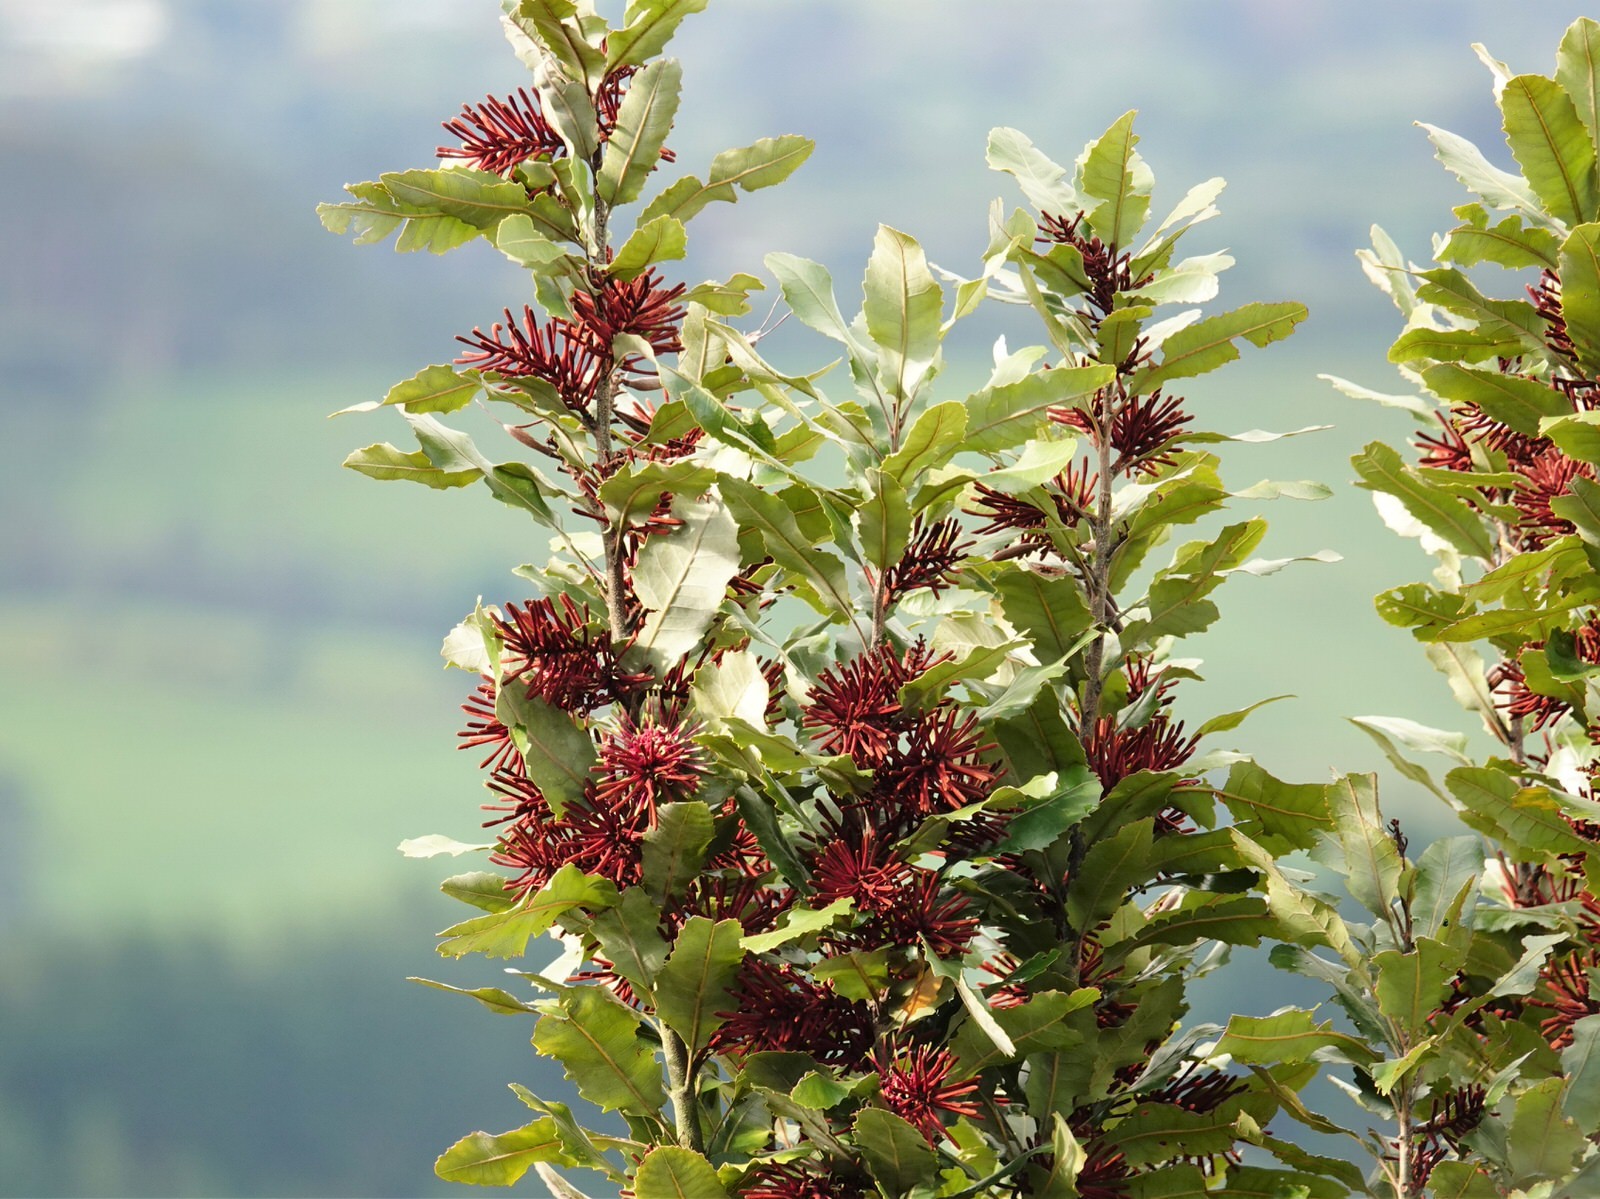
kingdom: Plantae
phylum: Tracheophyta
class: Magnoliopsida
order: Proteales
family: Proteaceae
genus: Knightia
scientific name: Knightia excelsa
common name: New zealand-honeysuckle
